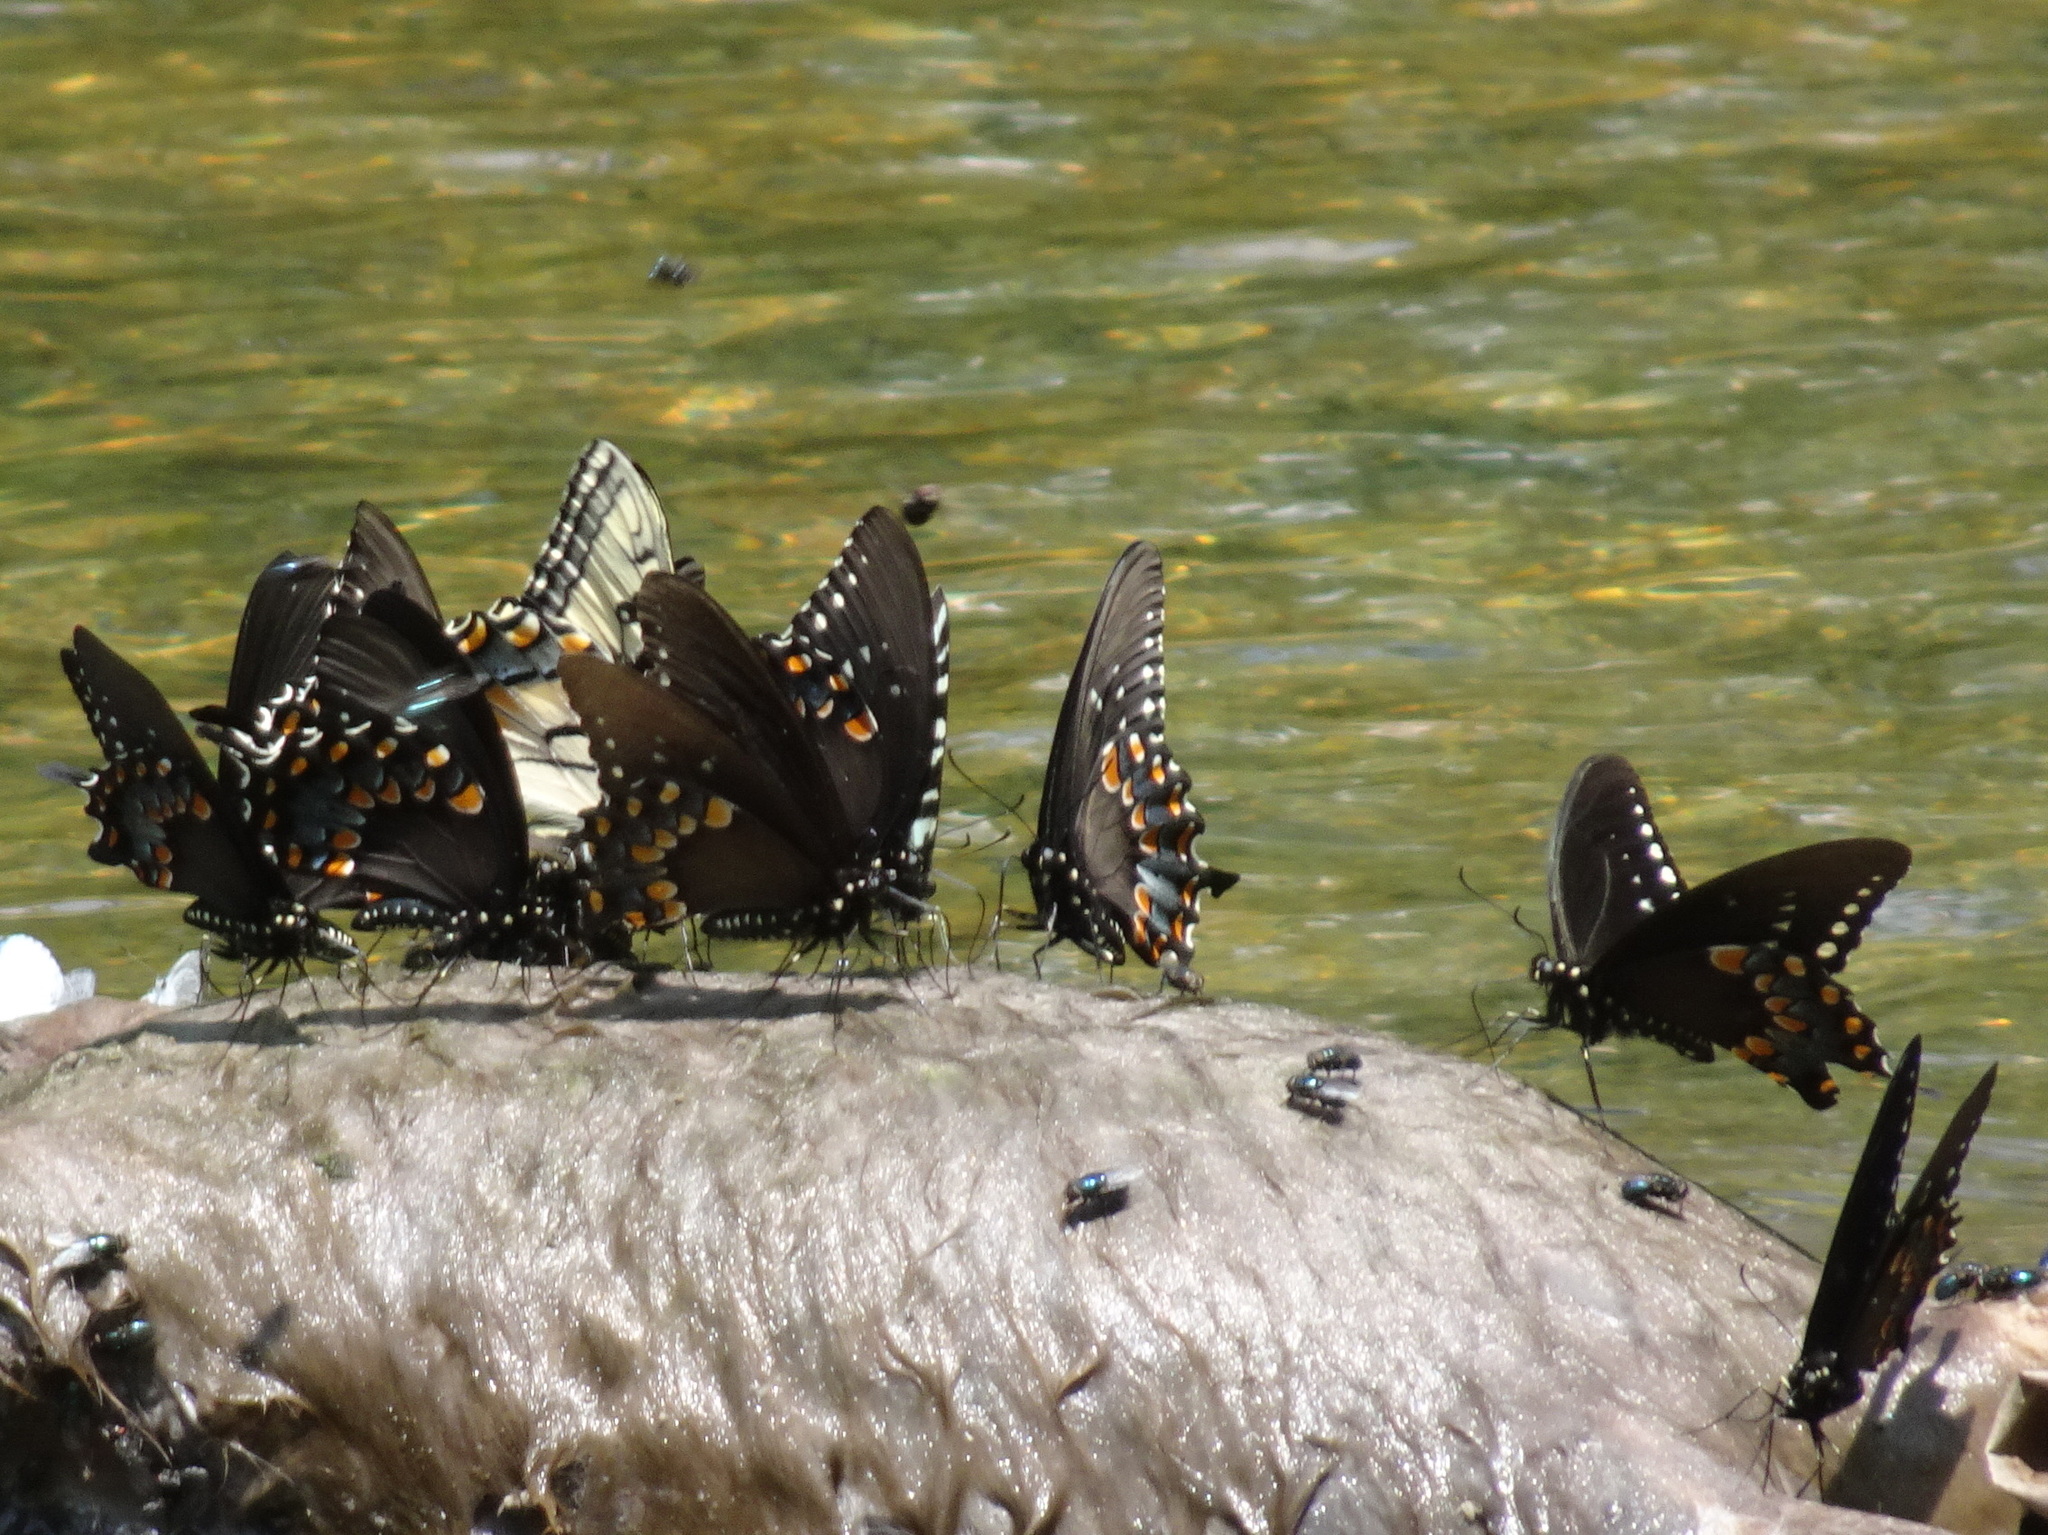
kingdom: Animalia
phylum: Arthropoda
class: Insecta
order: Lepidoptera
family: Papilionidae
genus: Papilio
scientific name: Papilio troilus
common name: Spicebush swallowtail
